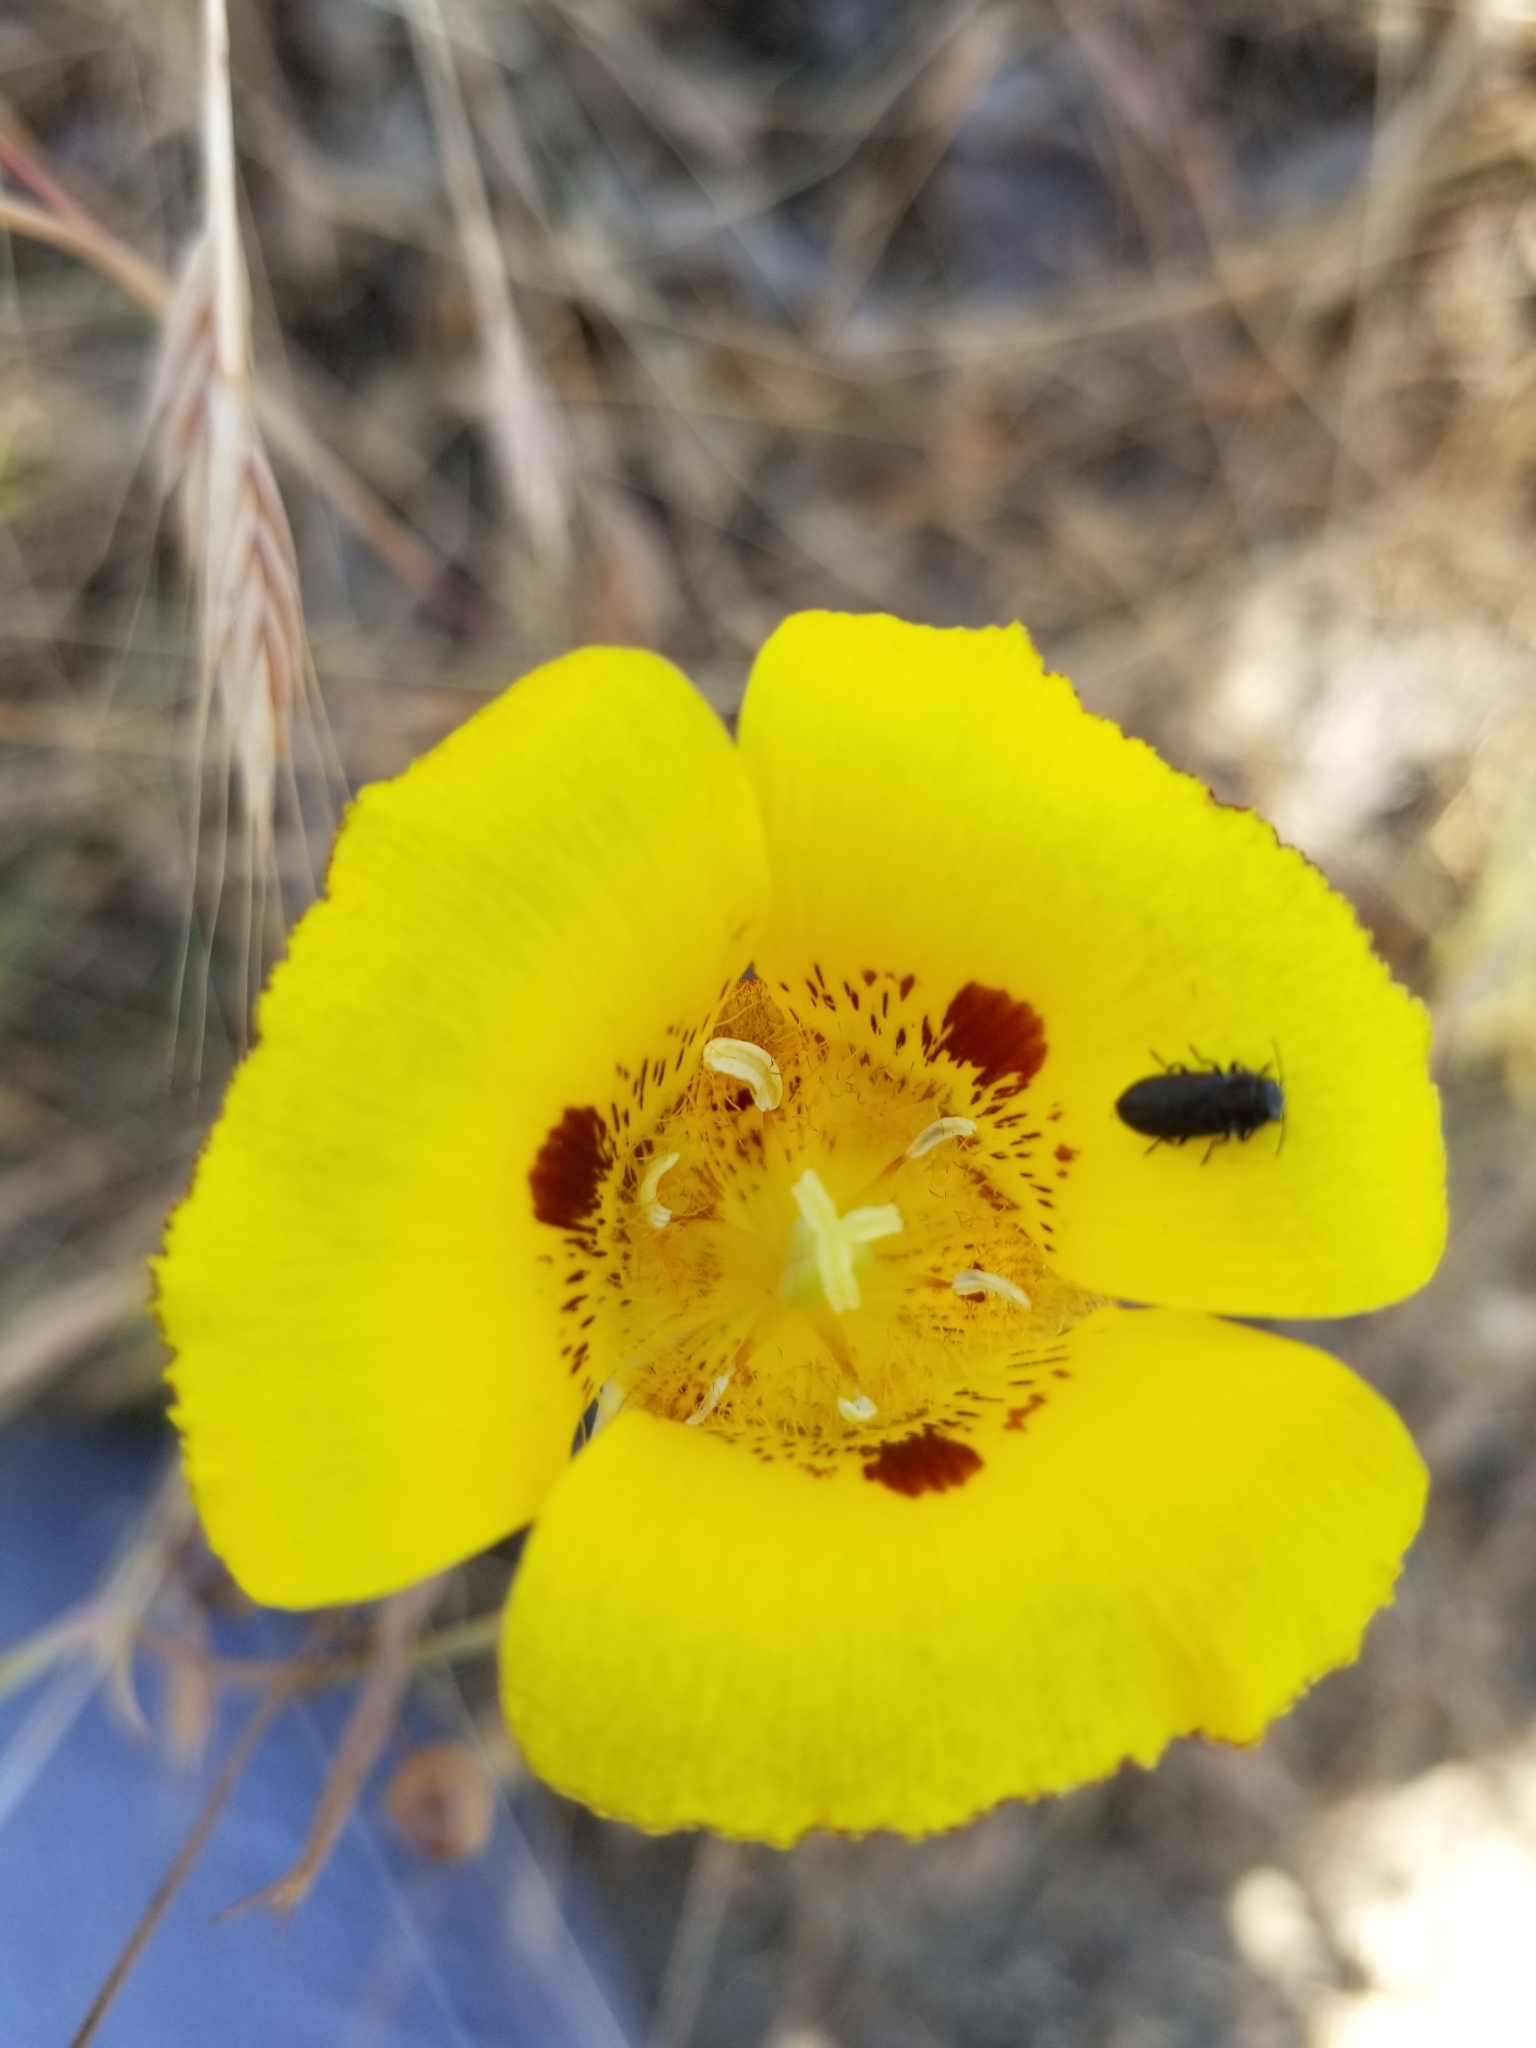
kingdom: Plantae
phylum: Tracheophyta
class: Liliopsida
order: Liliales
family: Liliaceae
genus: Calochortus
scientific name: Calochortus luteus
